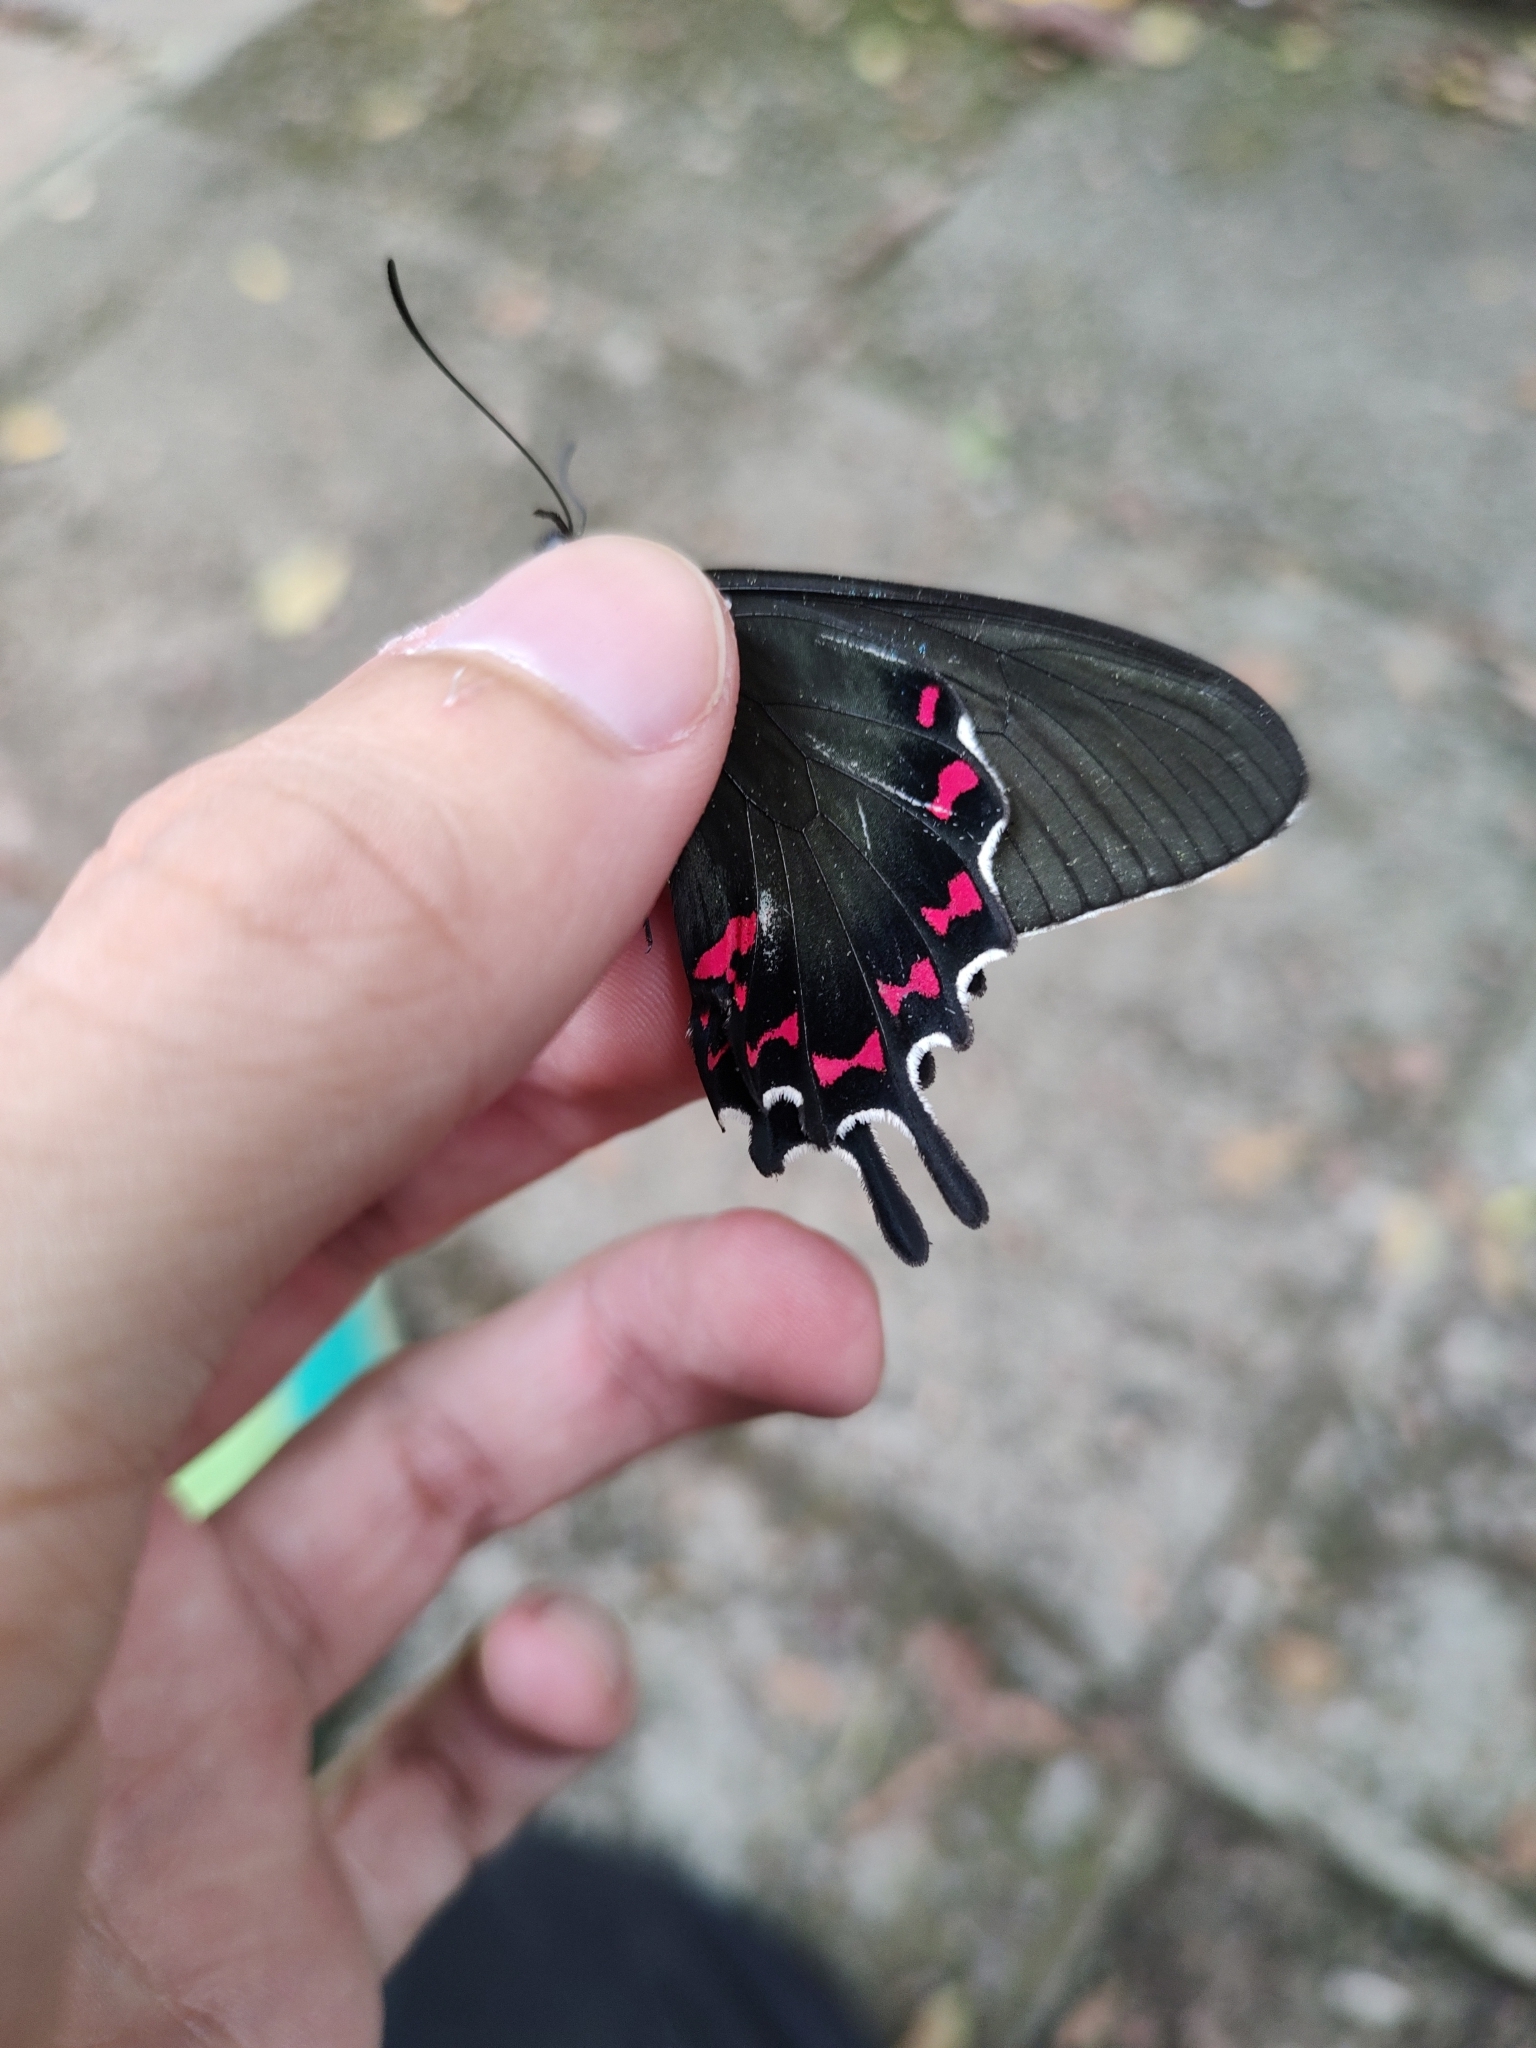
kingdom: Animalia
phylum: Arthropoda
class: Insecta
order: Lepidoptera
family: Papilionidae
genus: Parides
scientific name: Parides bunichus
